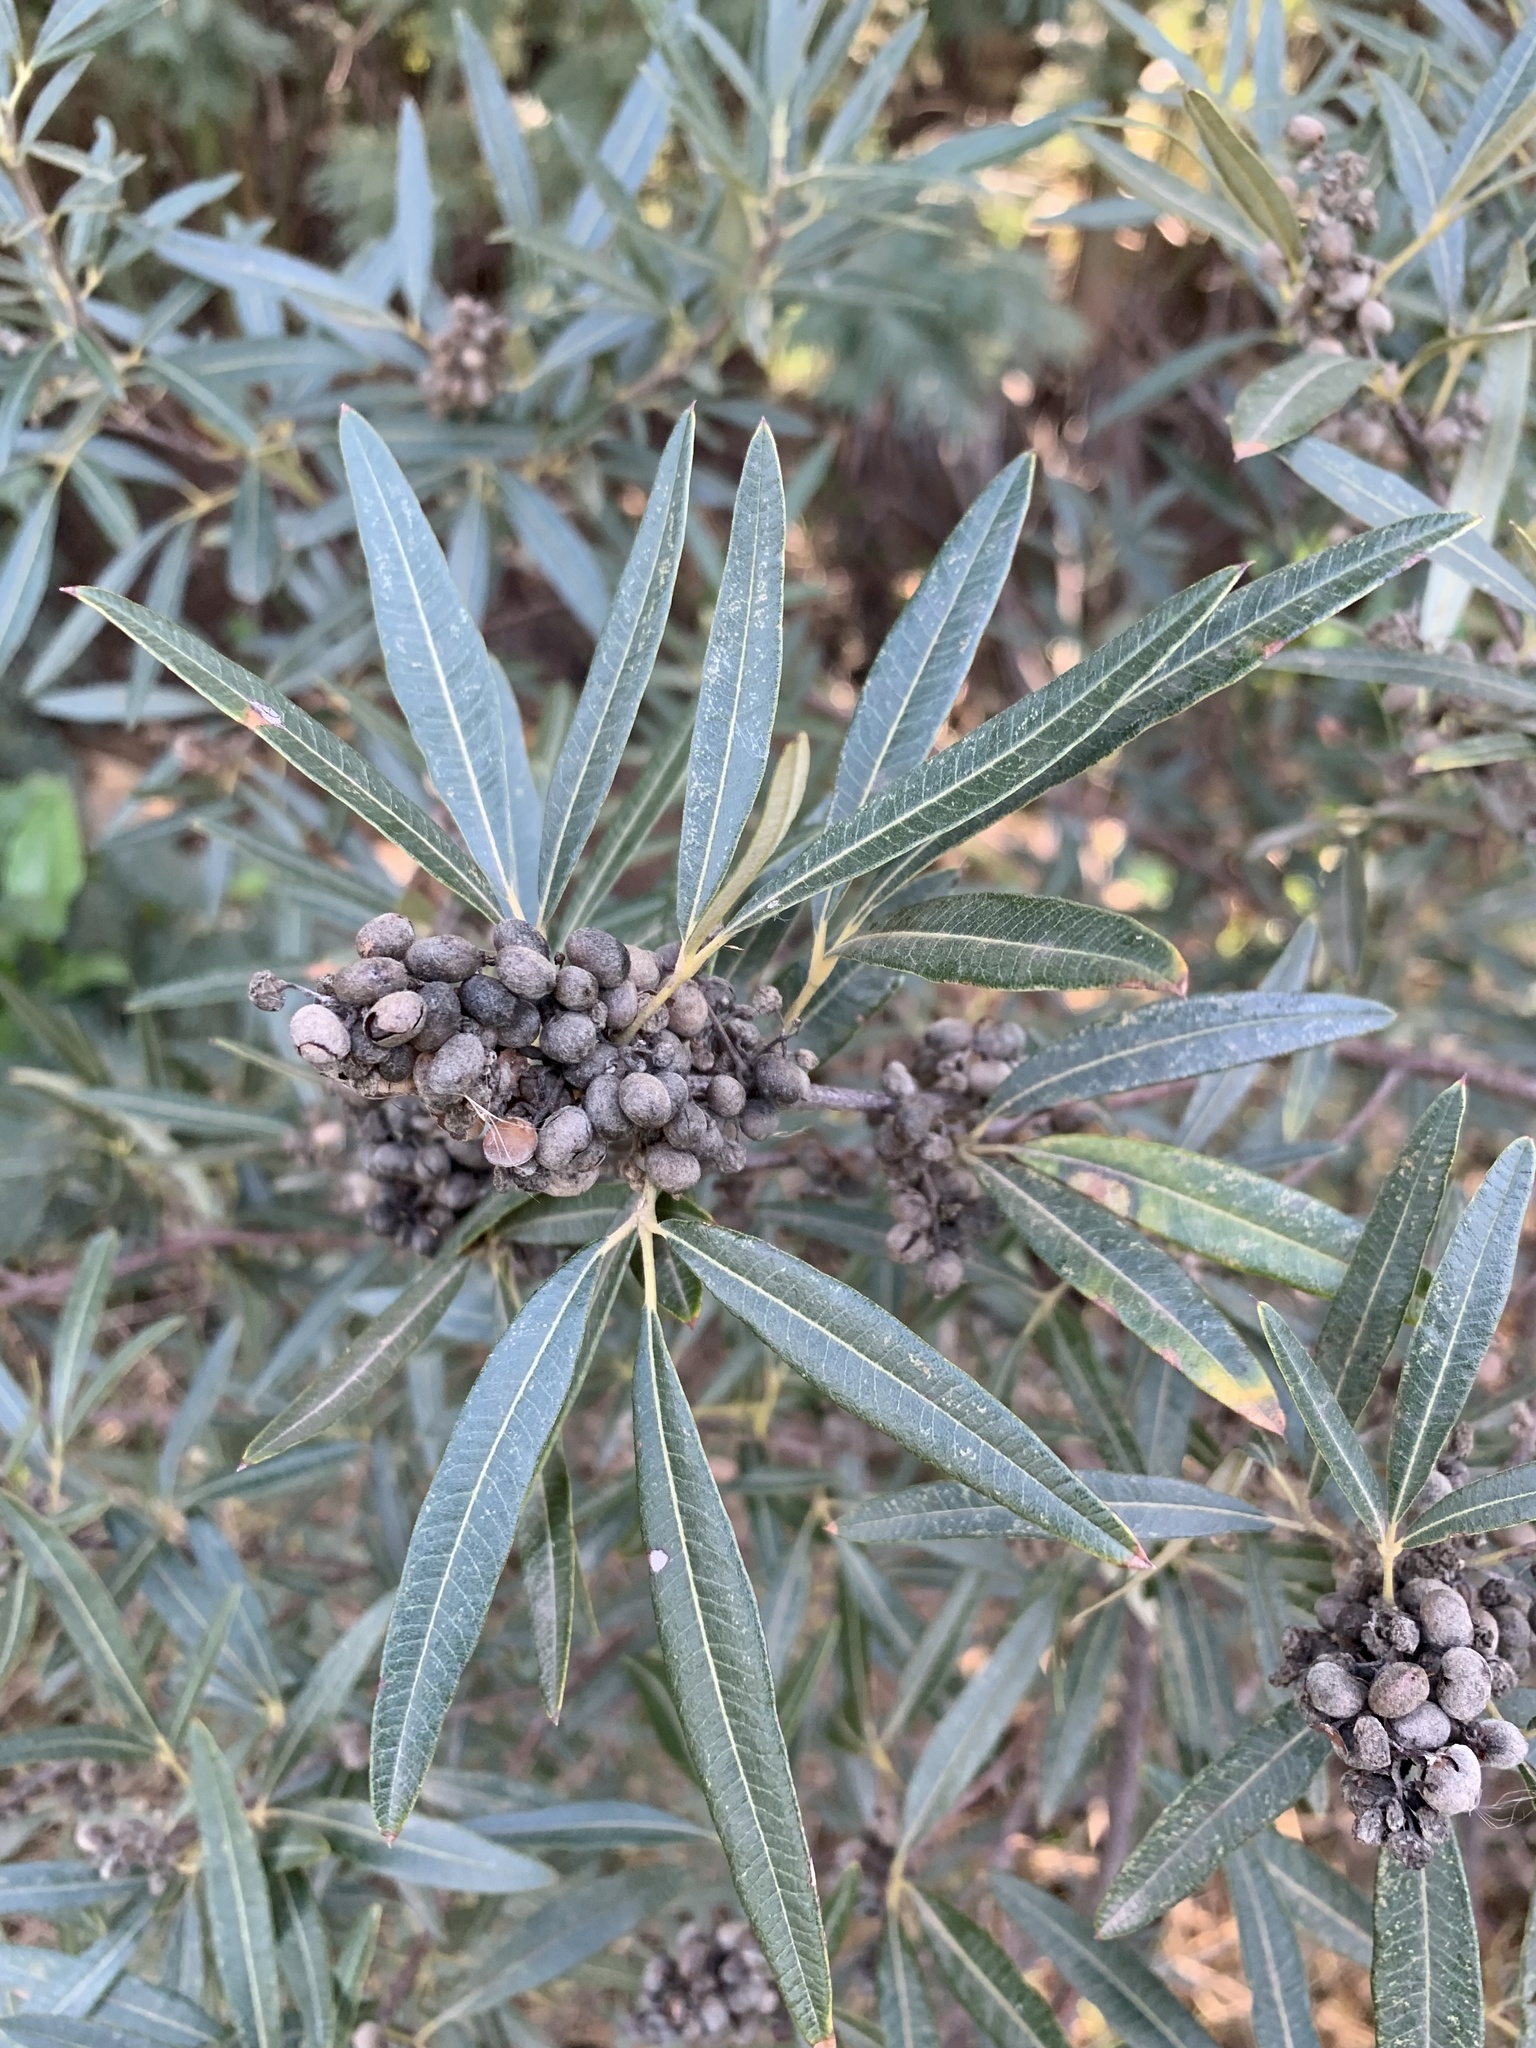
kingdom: Plantae
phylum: Tracheophyta
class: Magnoliopsida
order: Sapindales
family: Anacardiaceae
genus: Searsia
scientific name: Searsia angustifolia
